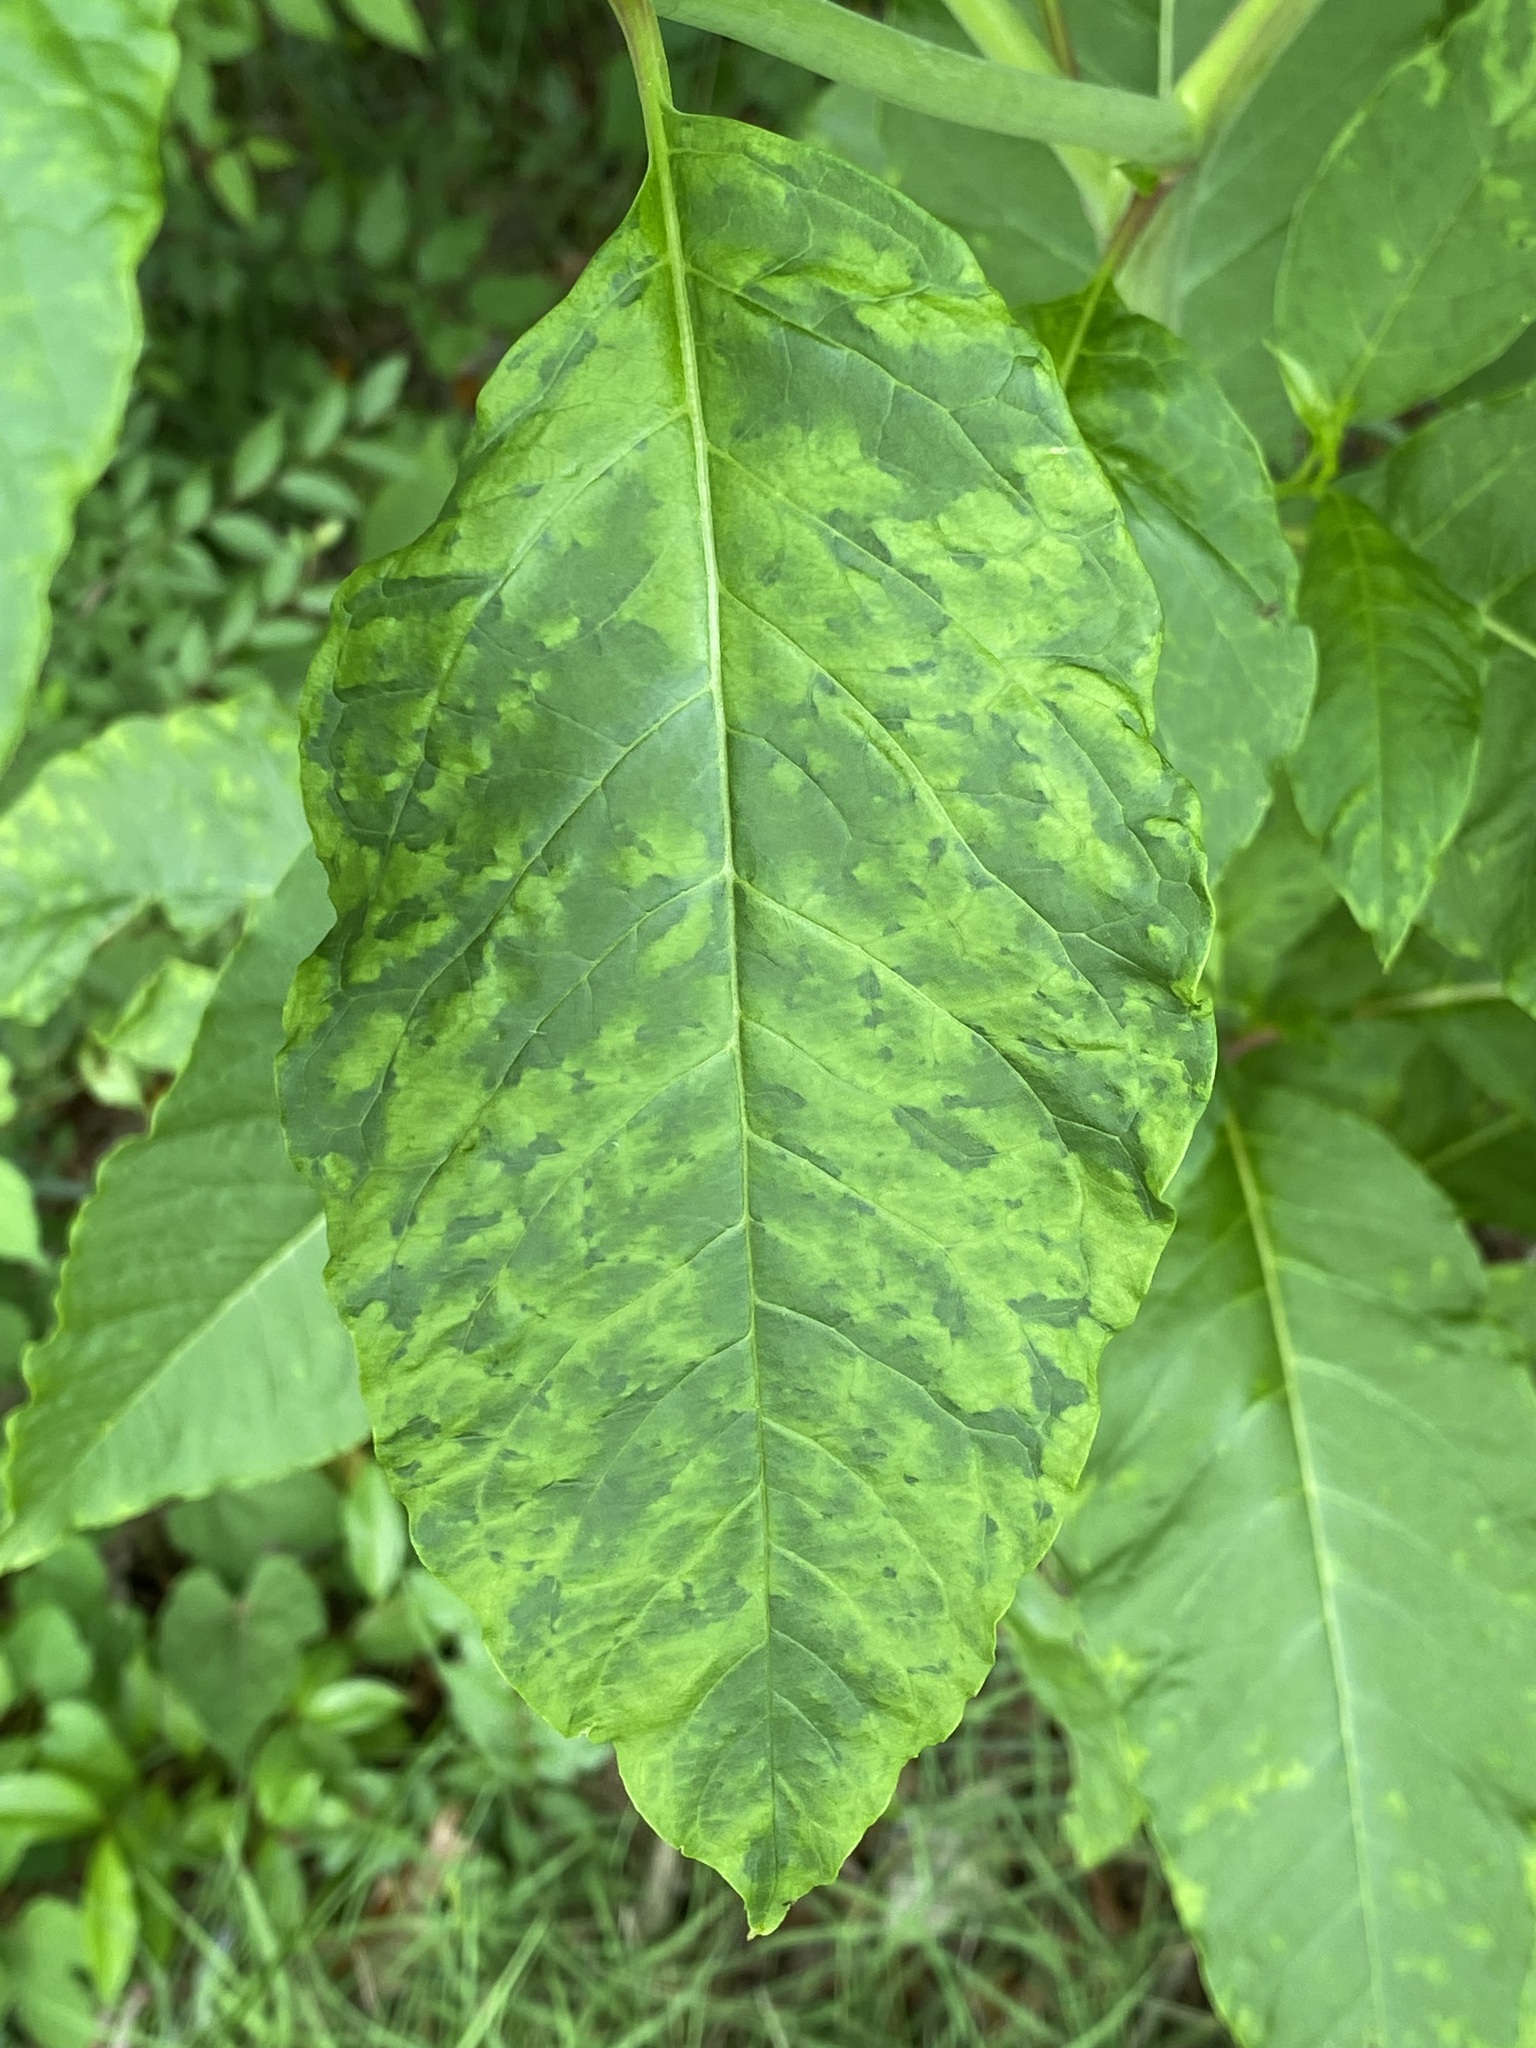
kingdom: Viruses
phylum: Pisuviricota
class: Stelpaviricetes
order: Patatavirales
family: Potyviridae
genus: Potyvirus
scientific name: Potyvirus Pokeweed mosaic virus
